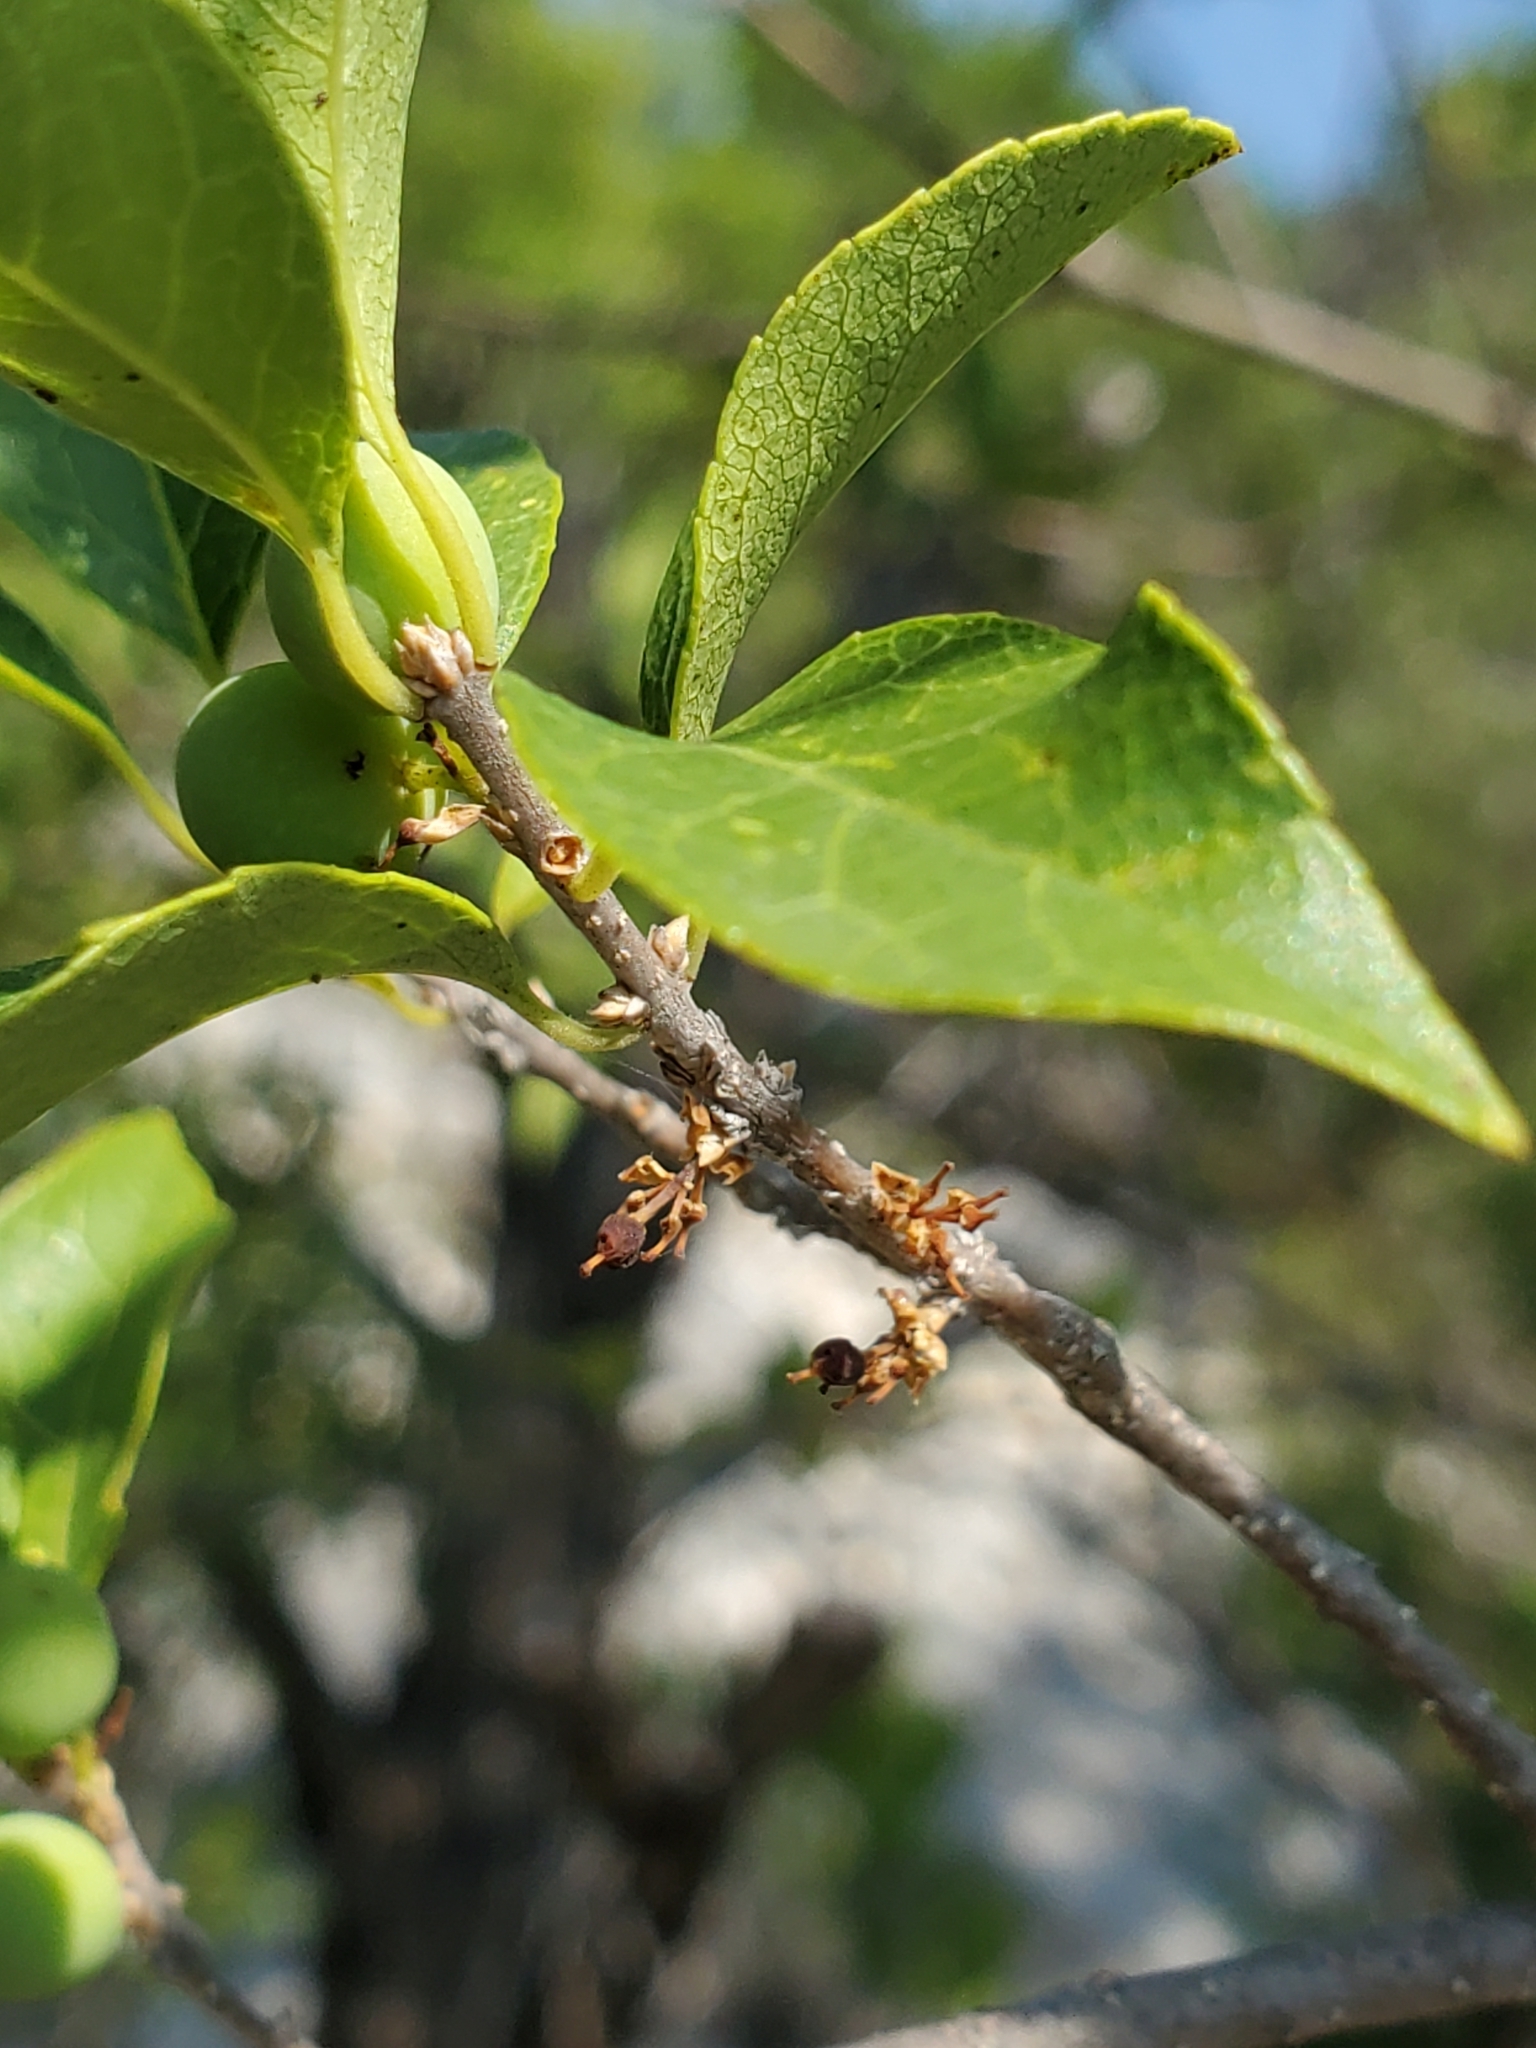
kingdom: Plantae
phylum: Tracheophyta
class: Magnoliopsida
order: Lamiales
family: Oleaceae
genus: Forestiera
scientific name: Forestiera reticulata
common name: Netleaf swamp-privet
